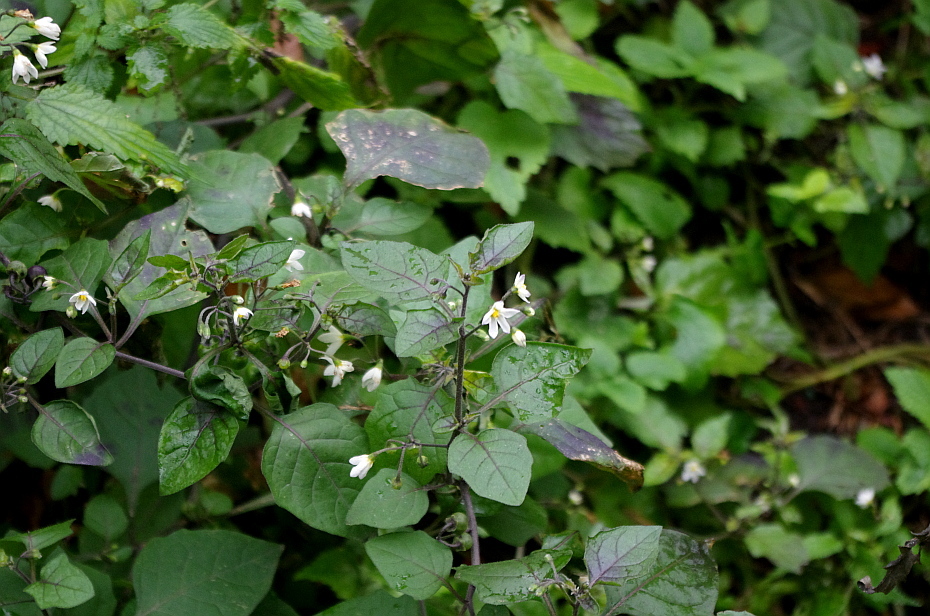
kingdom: Plantae
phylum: Tracheophyta
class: Magnoliopsida
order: Solanales
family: Solanaceae
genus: Solanum
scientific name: Solanum nigrum
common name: Black nightshade
